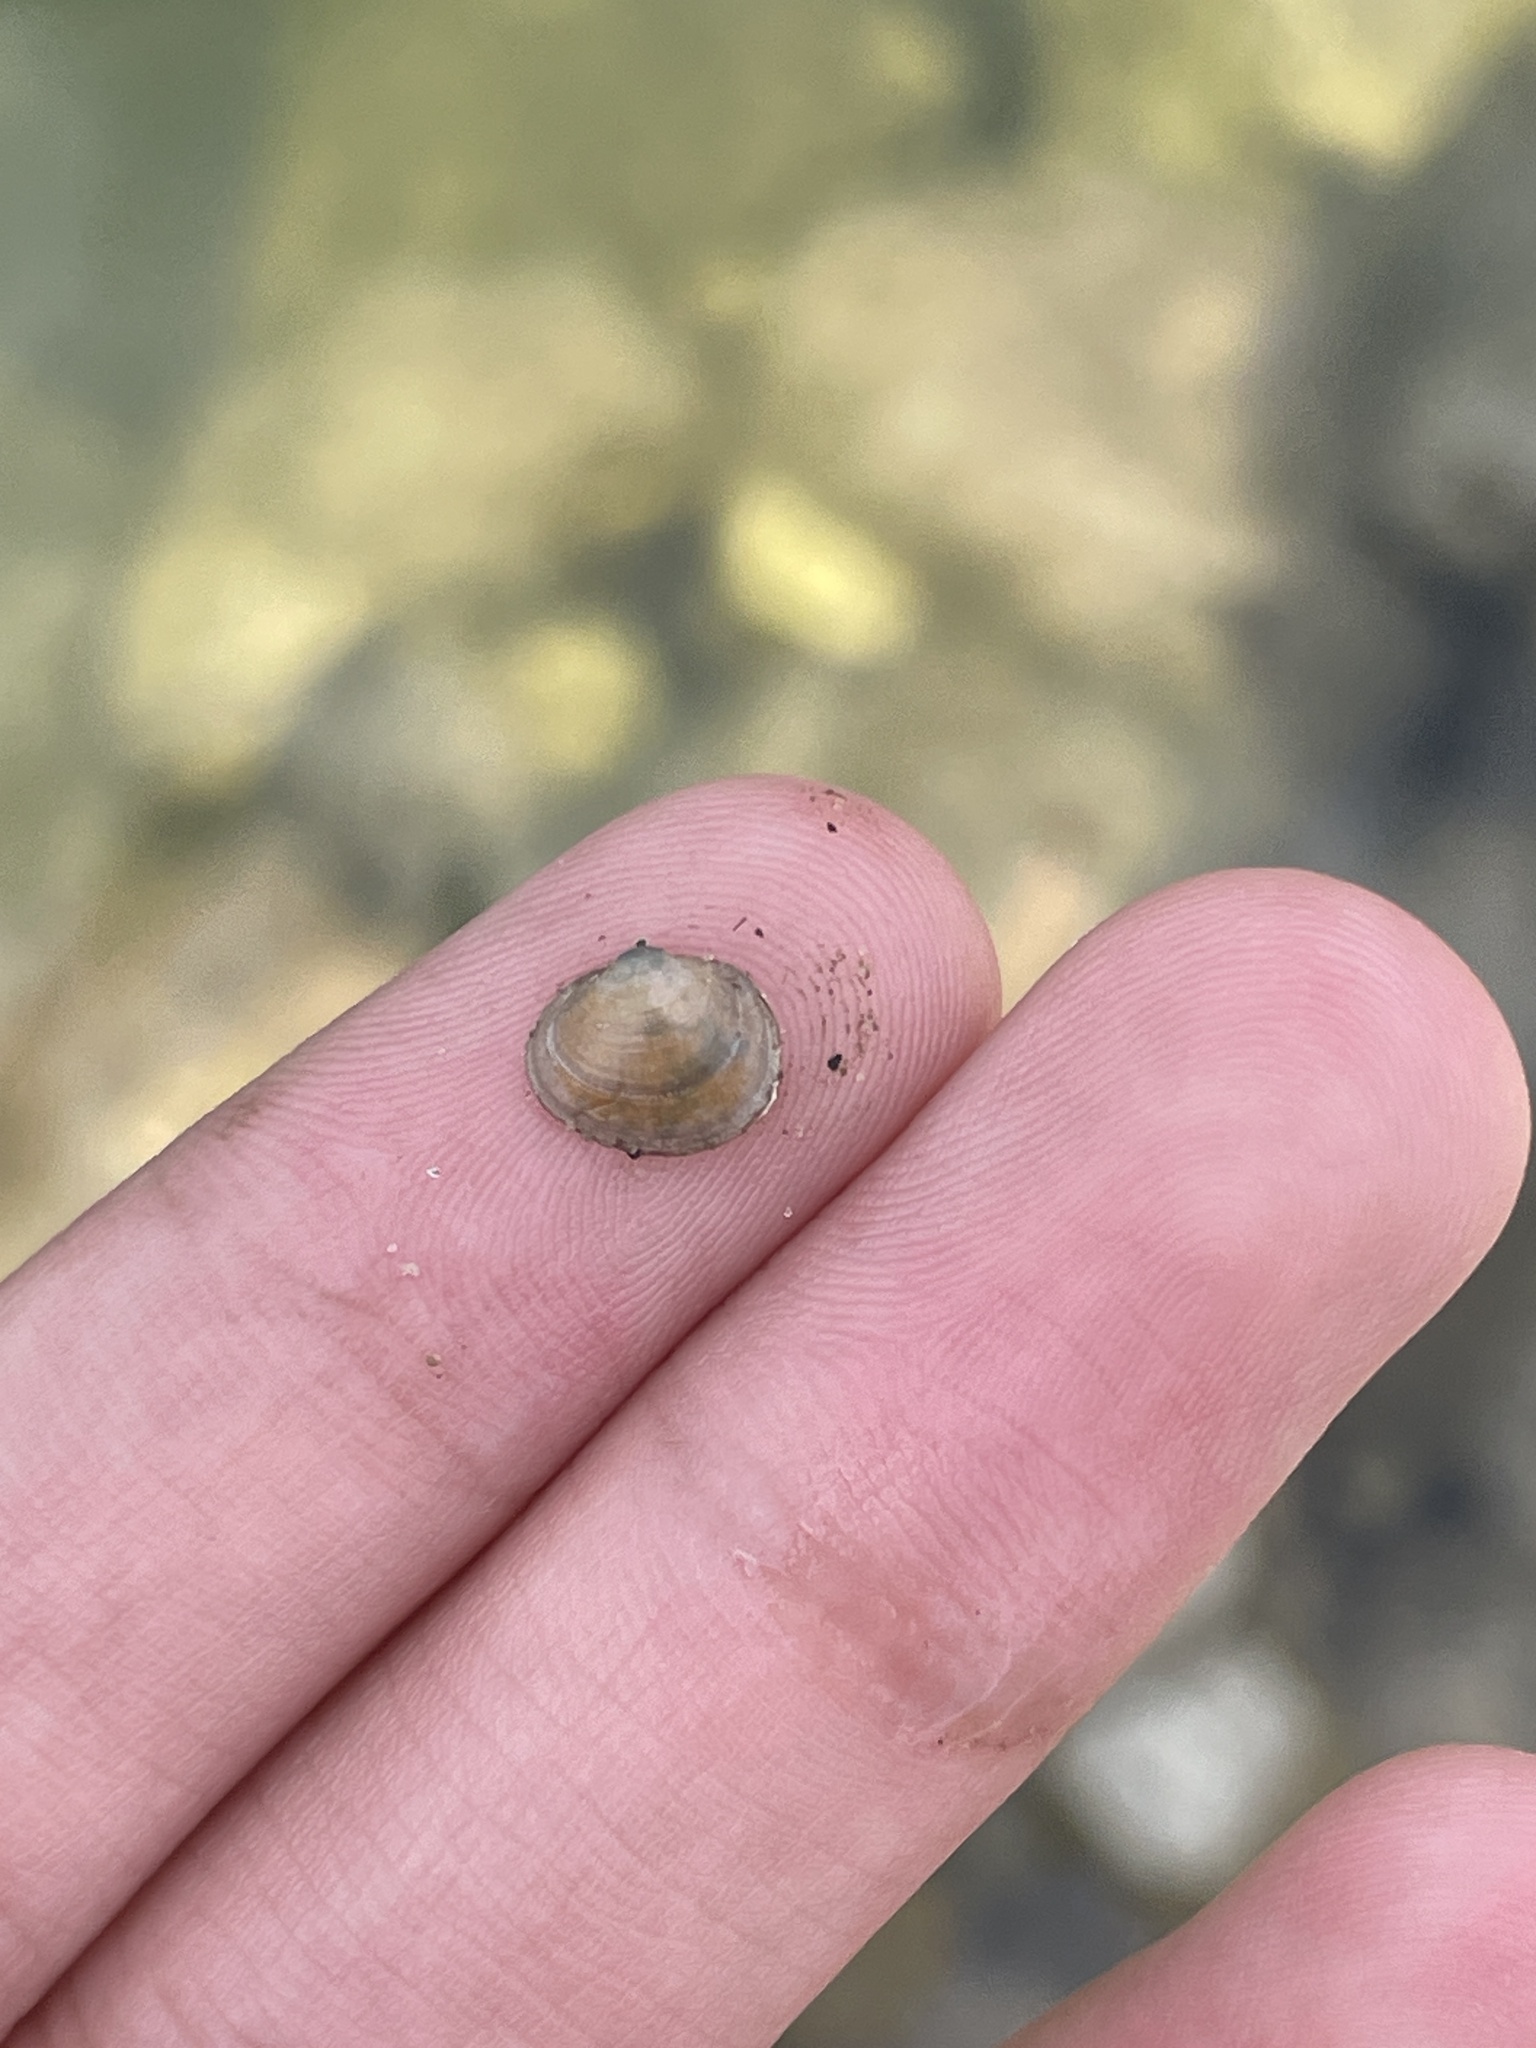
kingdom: Animalia
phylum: Mollusca
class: Bivalvia
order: Sphaeriida
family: Sphaeriidae
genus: Musculium
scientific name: Musculium lacustre
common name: Lake fingernailclam
